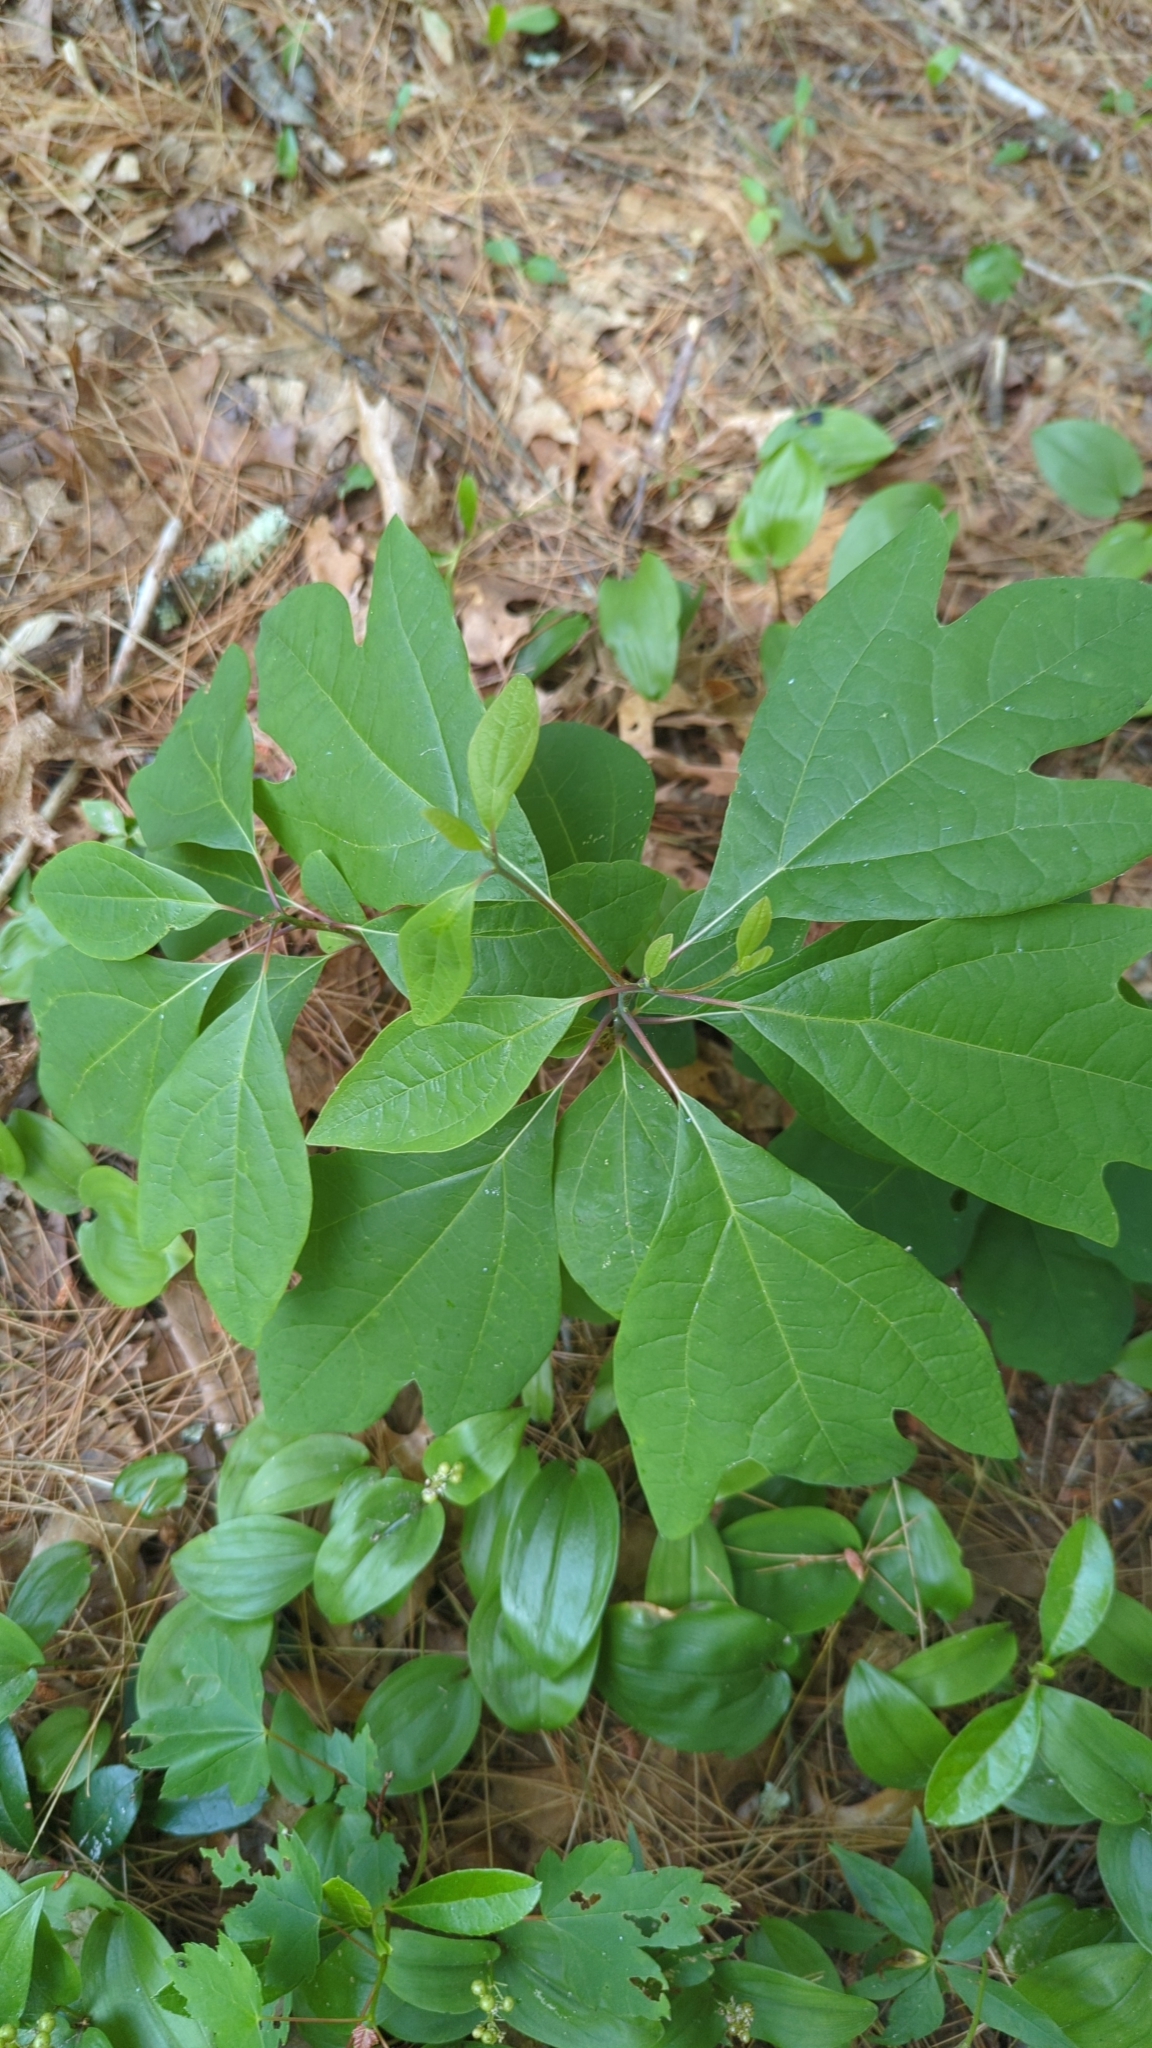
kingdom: Plantae
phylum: Tracheophyta
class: Magnoliopsida
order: Laurales
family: Lauraceae
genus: Sassafras
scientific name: Sassafras albidum
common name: Sassafras
